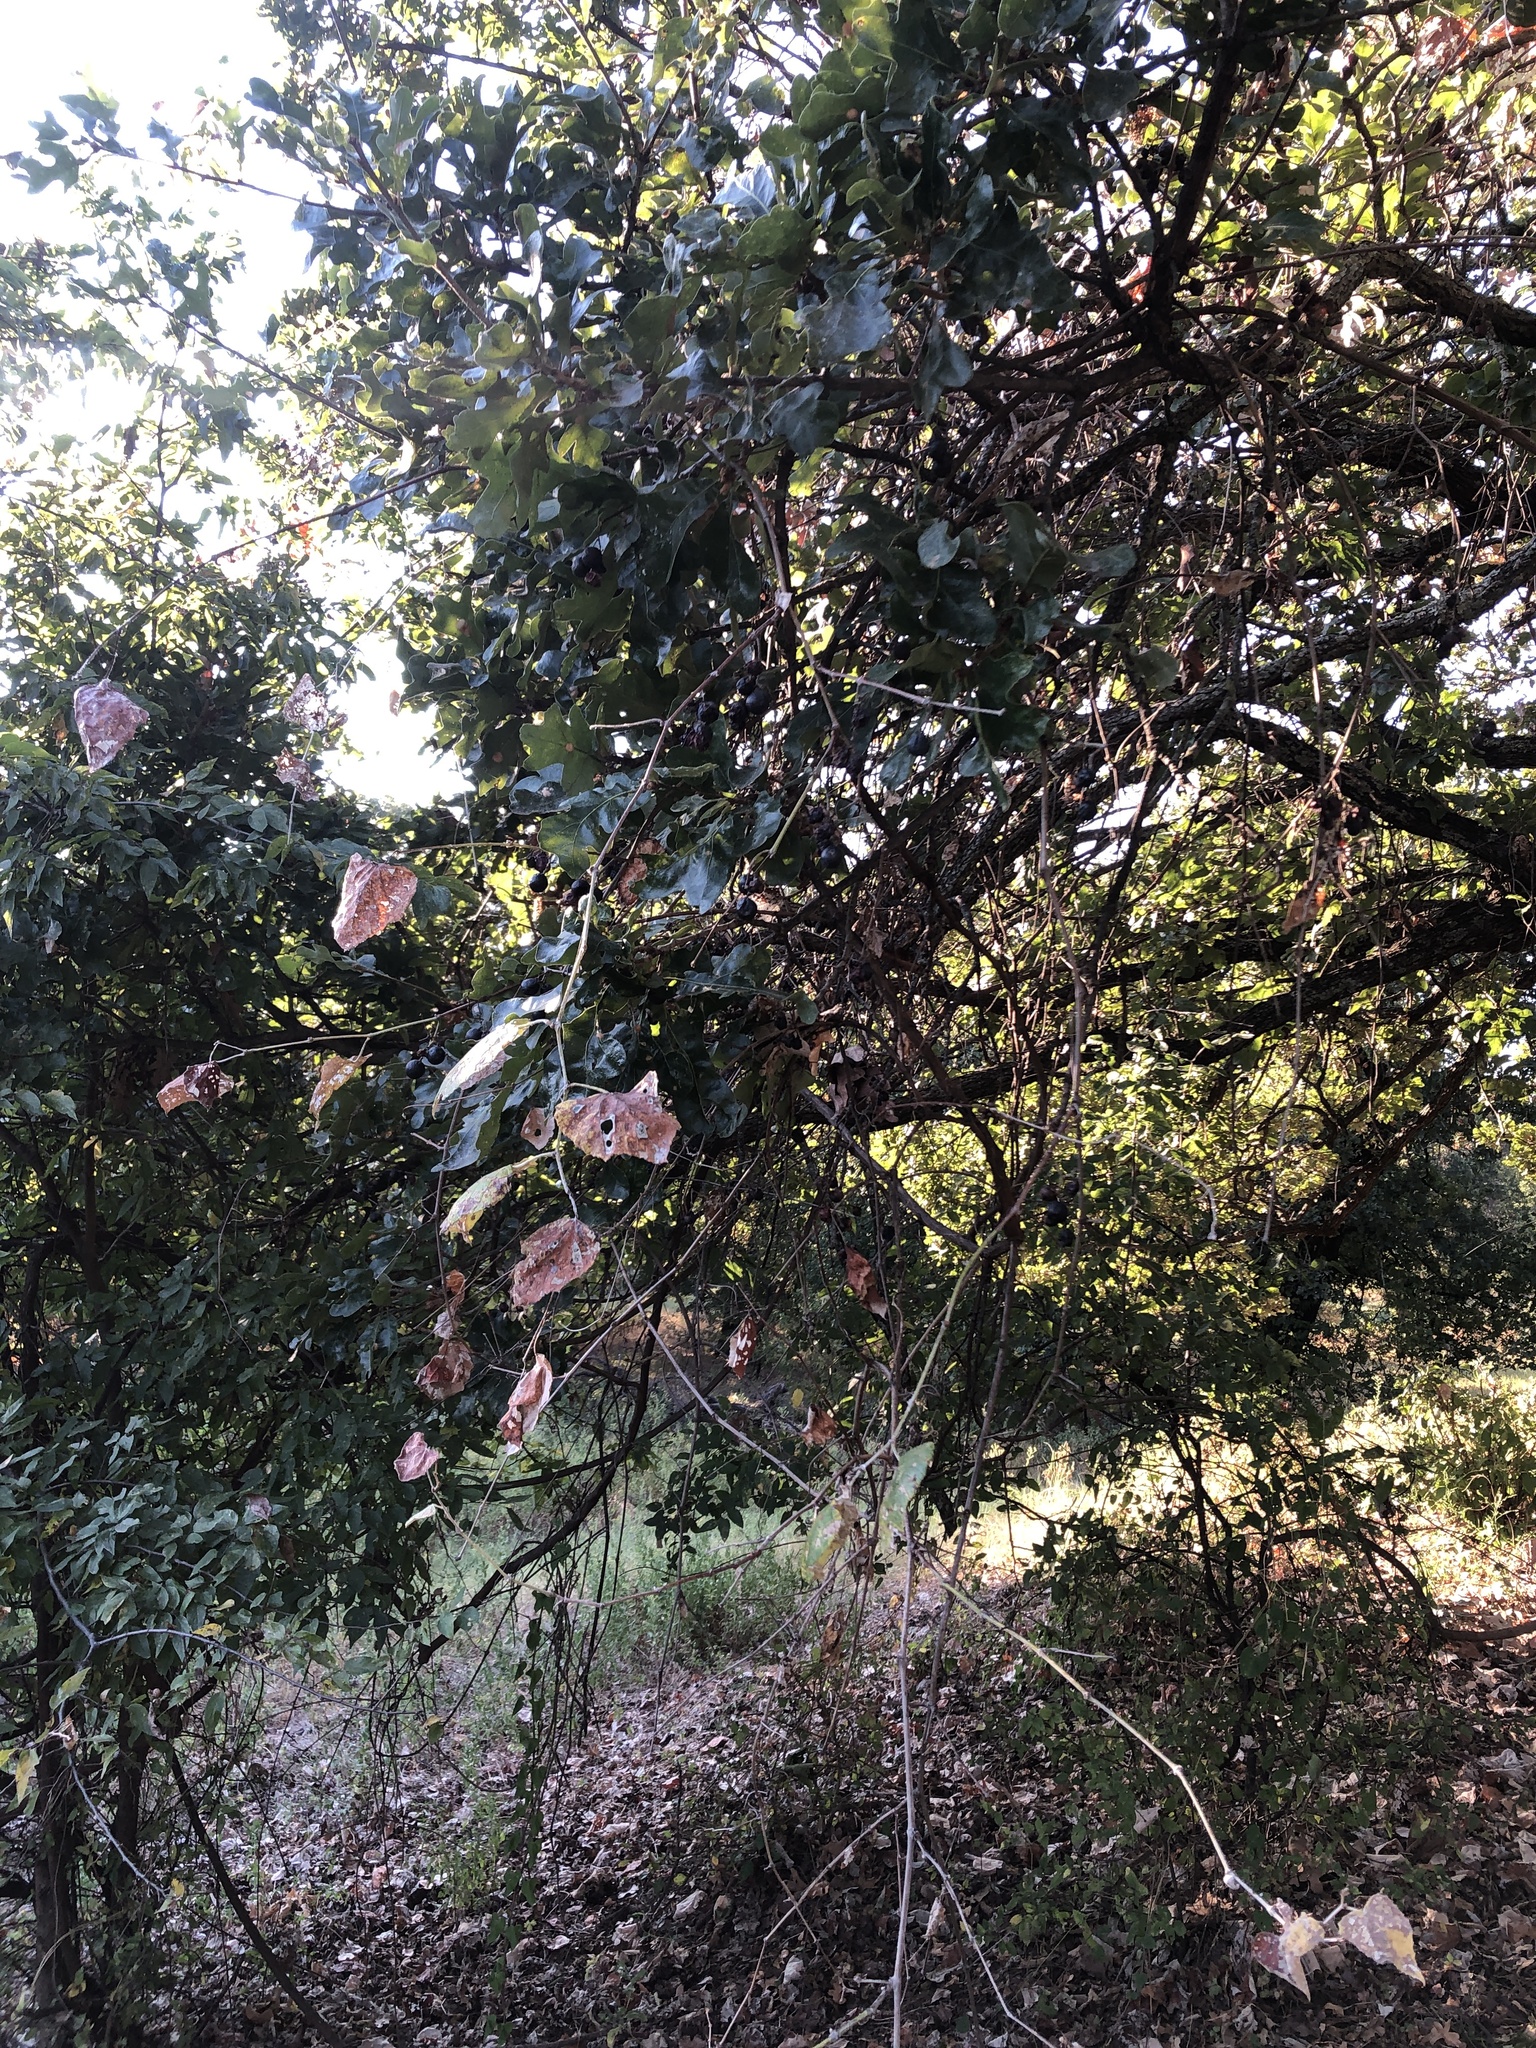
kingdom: Plantae
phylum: Tracheophyta
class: Magnoliopsida
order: Vitales
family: Vitaceae
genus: Vitis
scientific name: Vitis mustangensis
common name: Mustang grape
